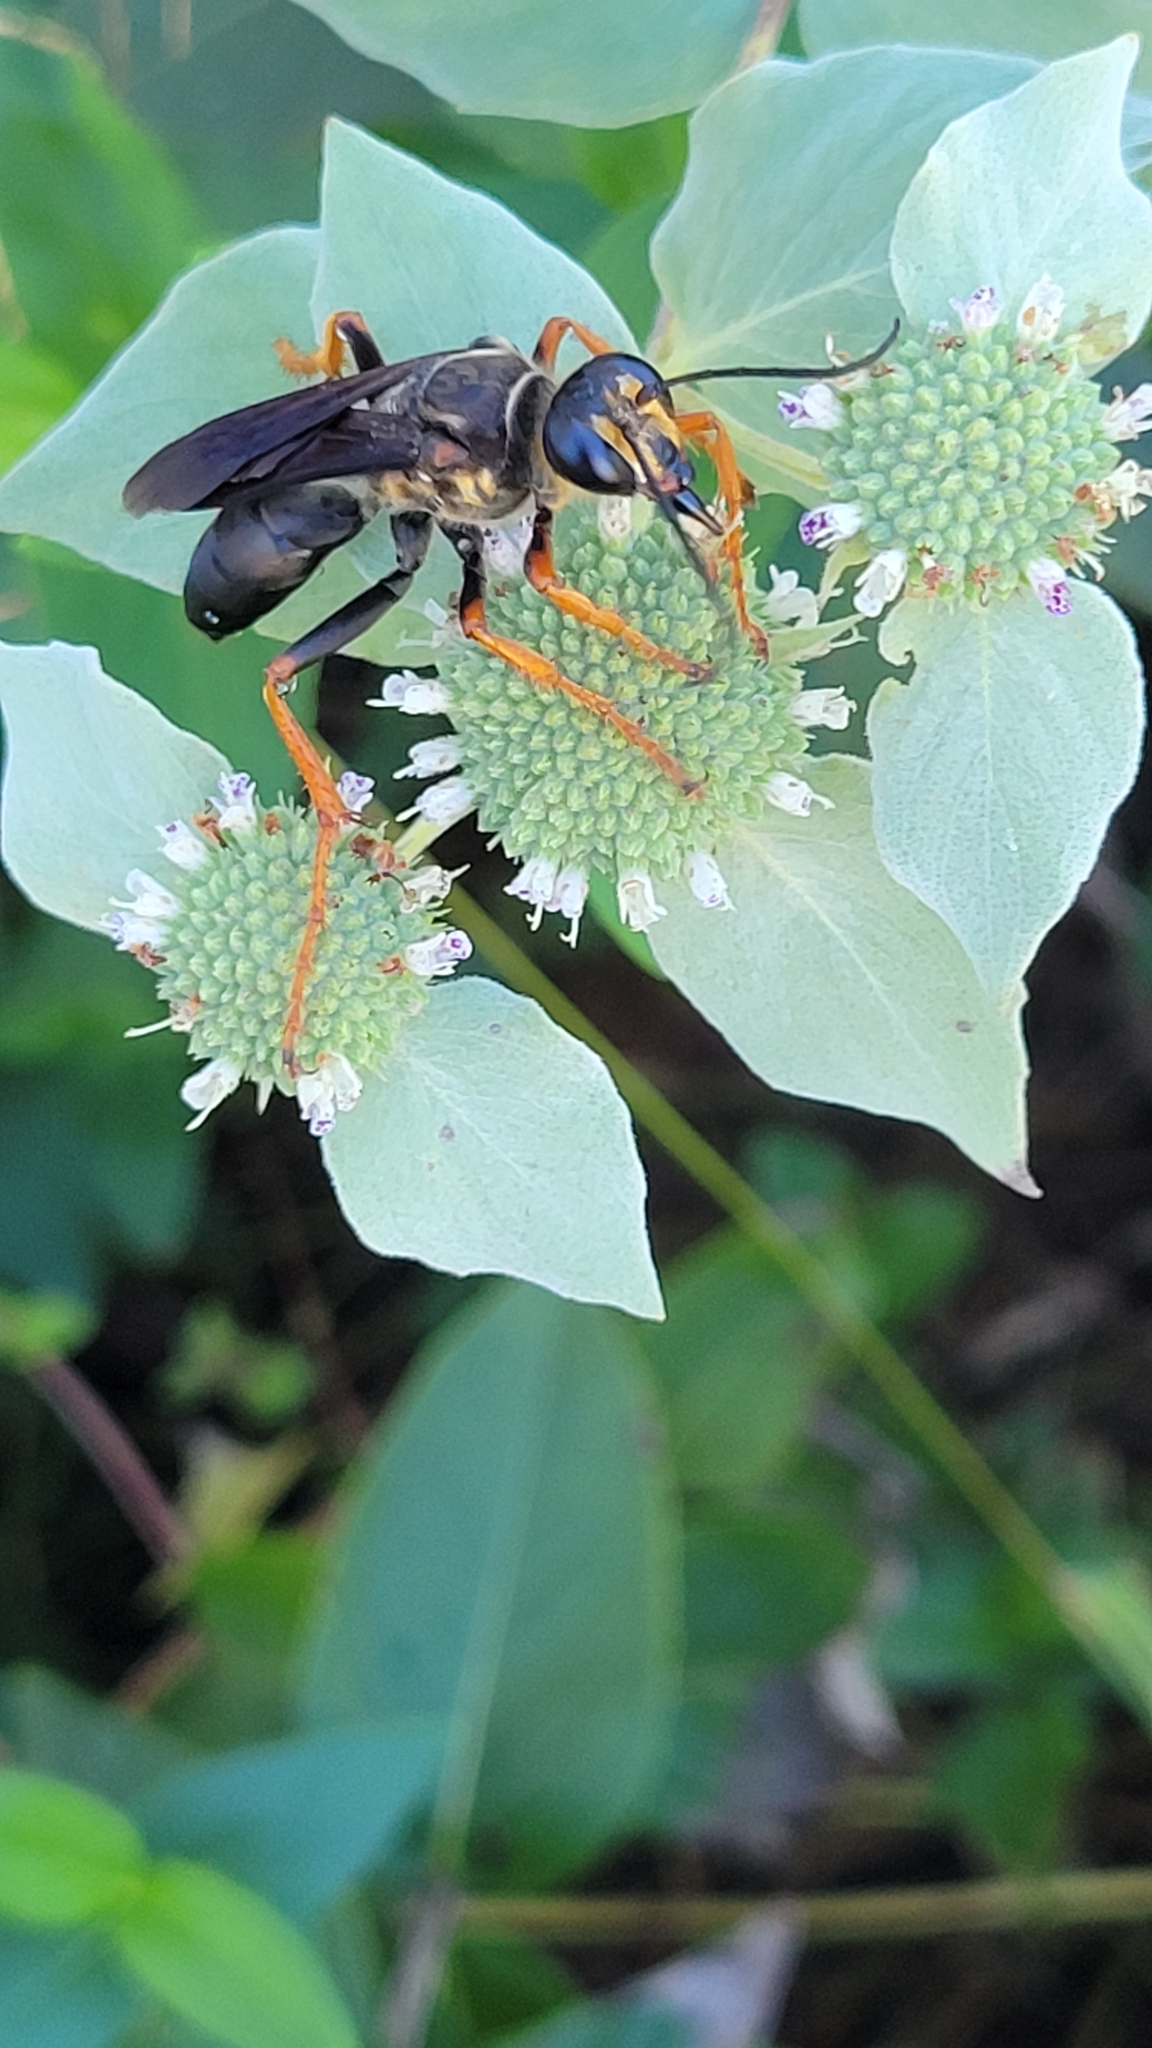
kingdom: Animalia
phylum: Arthropoda
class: Insecta
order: Hymenoptera
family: Sphecidae
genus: Sphex
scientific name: Sphex flavovestitus
